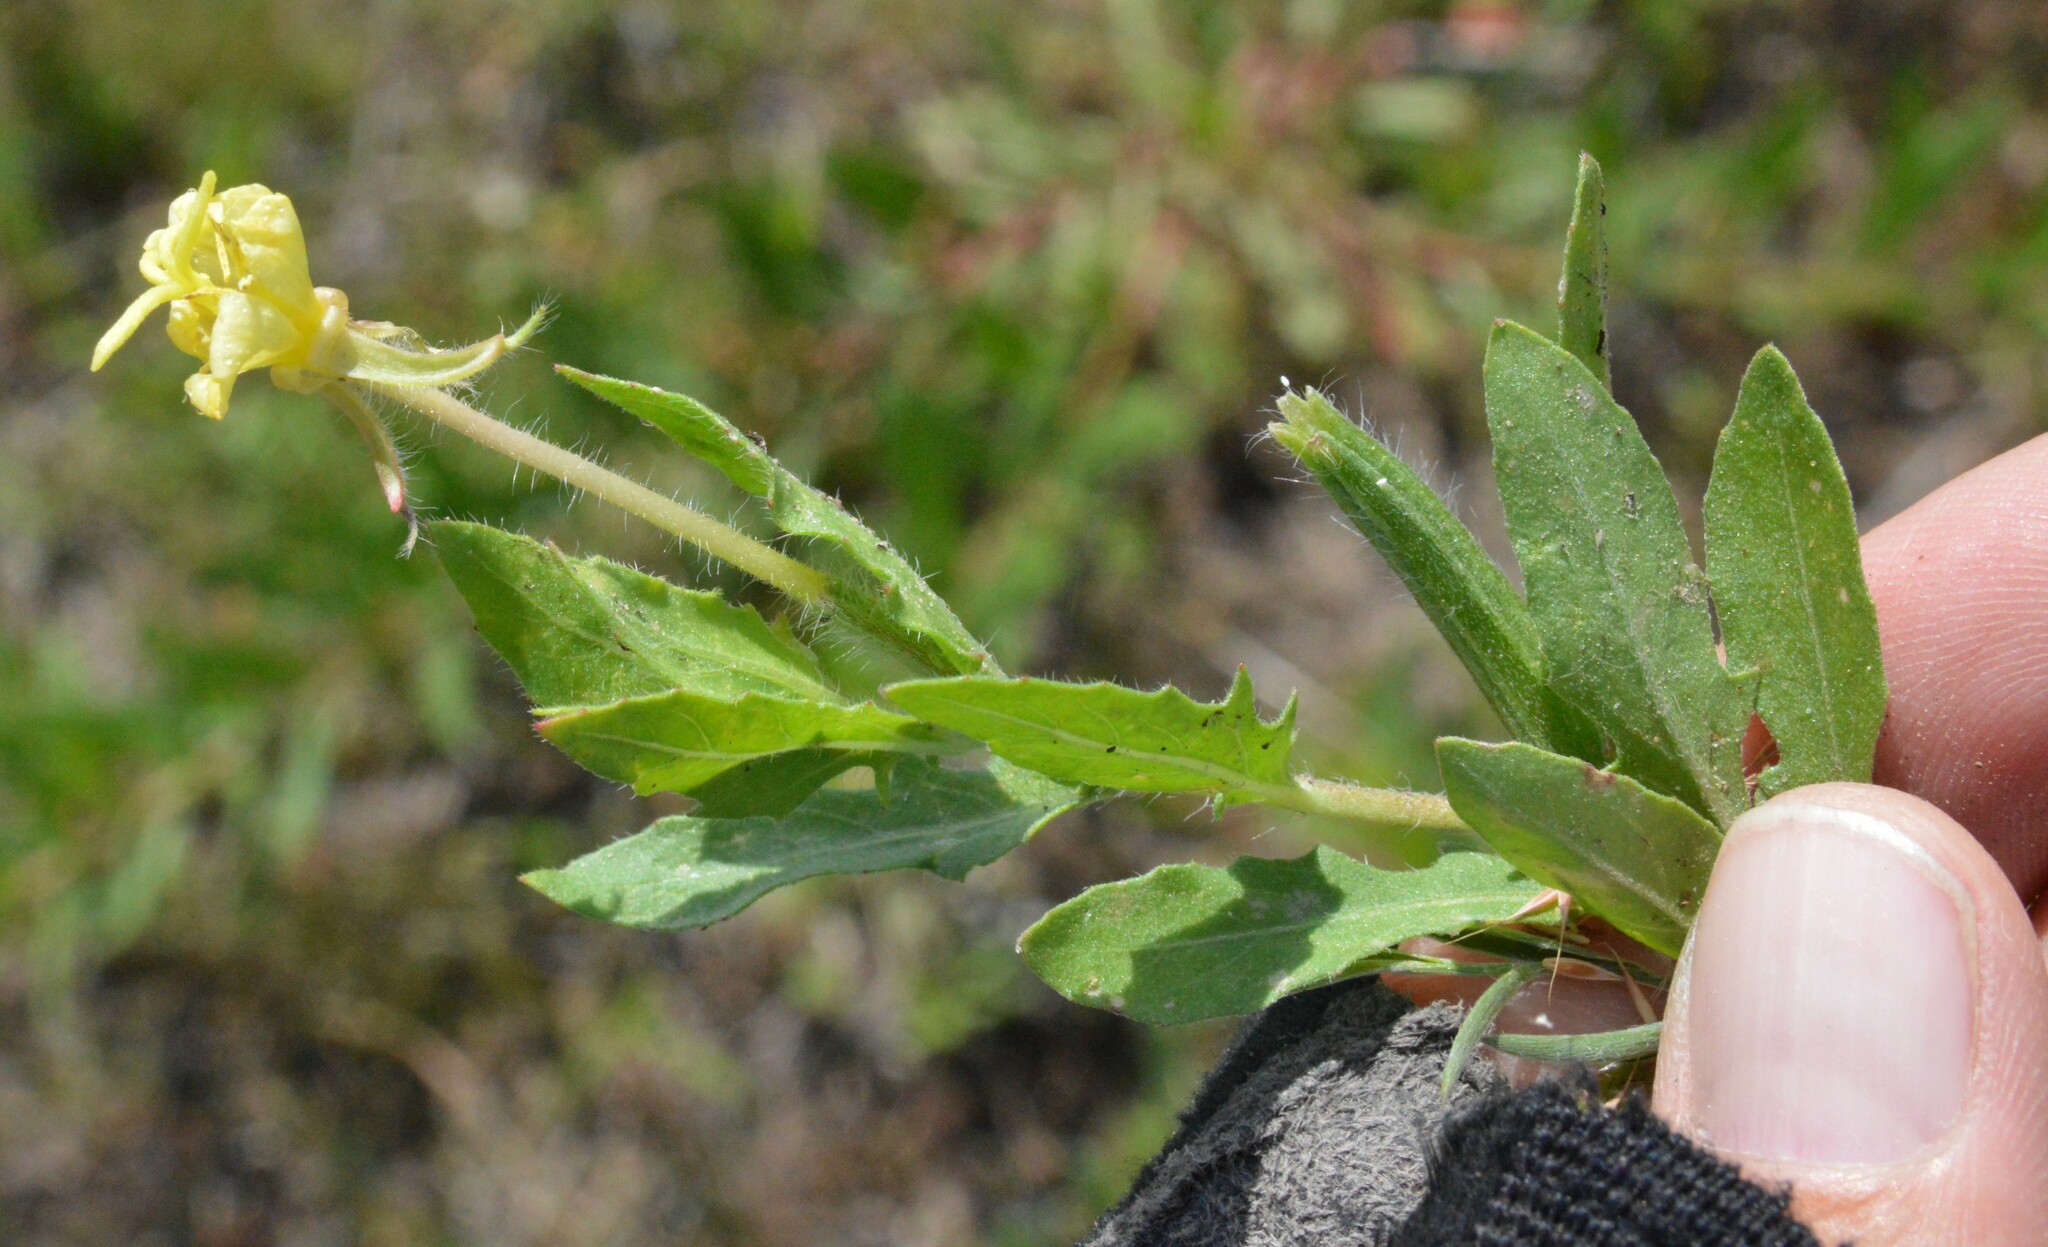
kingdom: Plantae
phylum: Tracheophyta
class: Magnoliopsida
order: Myrtales
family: Onagraceae
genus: Oenothera
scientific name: Oenothera laciniata
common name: Cut-leaved evening-primrose
